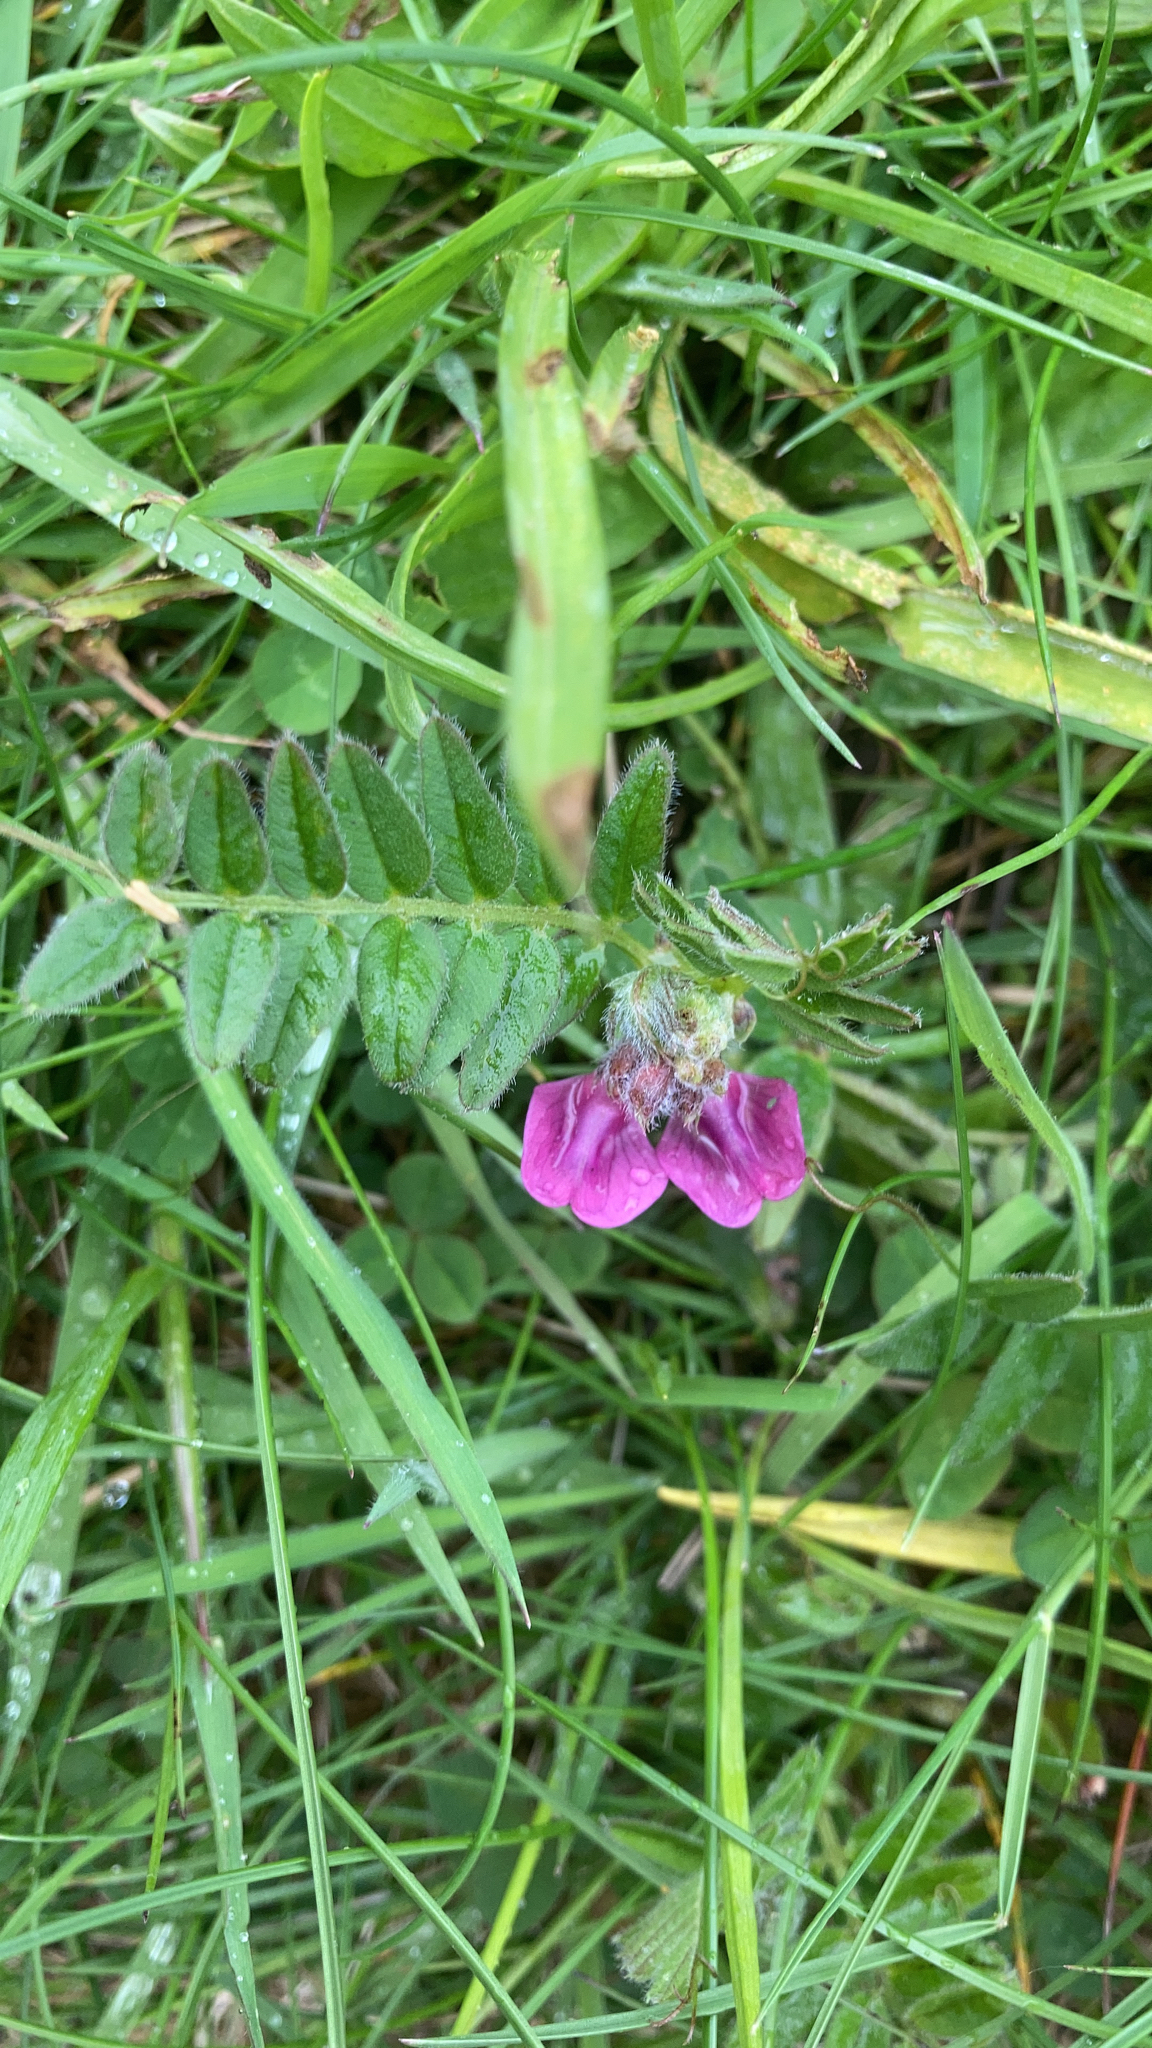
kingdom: Plantae
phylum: Tracheophyta
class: Magnoliopsida
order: Fabales
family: Fabaceae
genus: Vicia
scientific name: Vicia sepium
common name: Bush vetch
